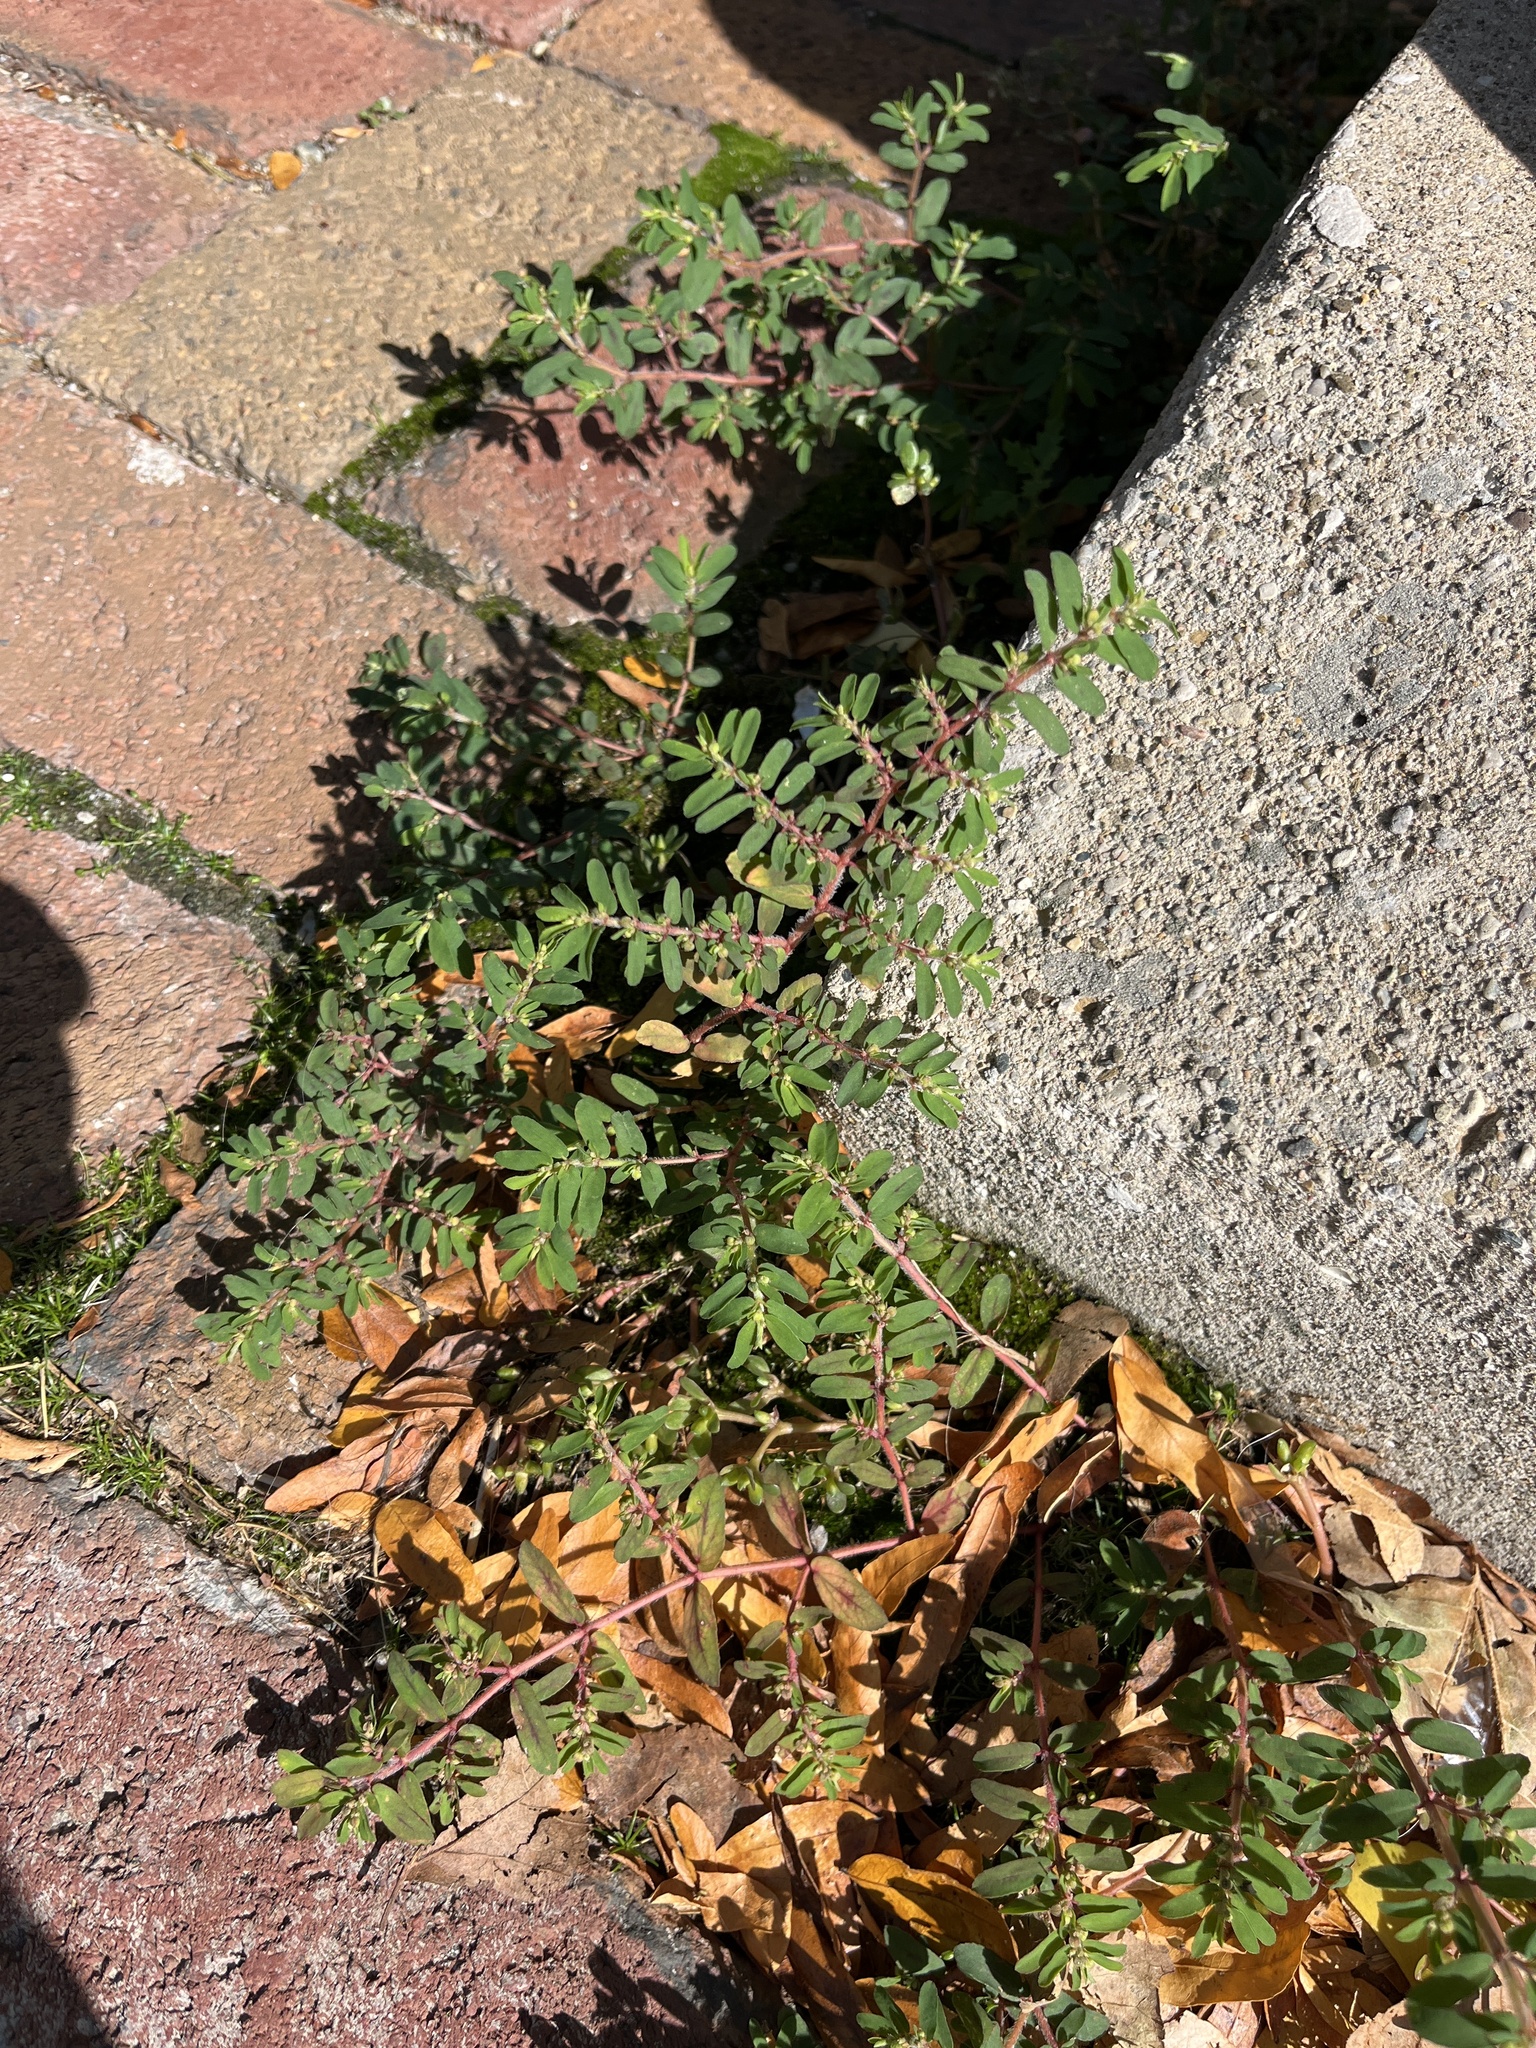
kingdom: Plantae
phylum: Tracheophyta
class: Magnoliopsida
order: Malpighiales
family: Euphorbiaceae
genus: Euphorbia
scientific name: Euphorbia maculata
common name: Spotted spurge
